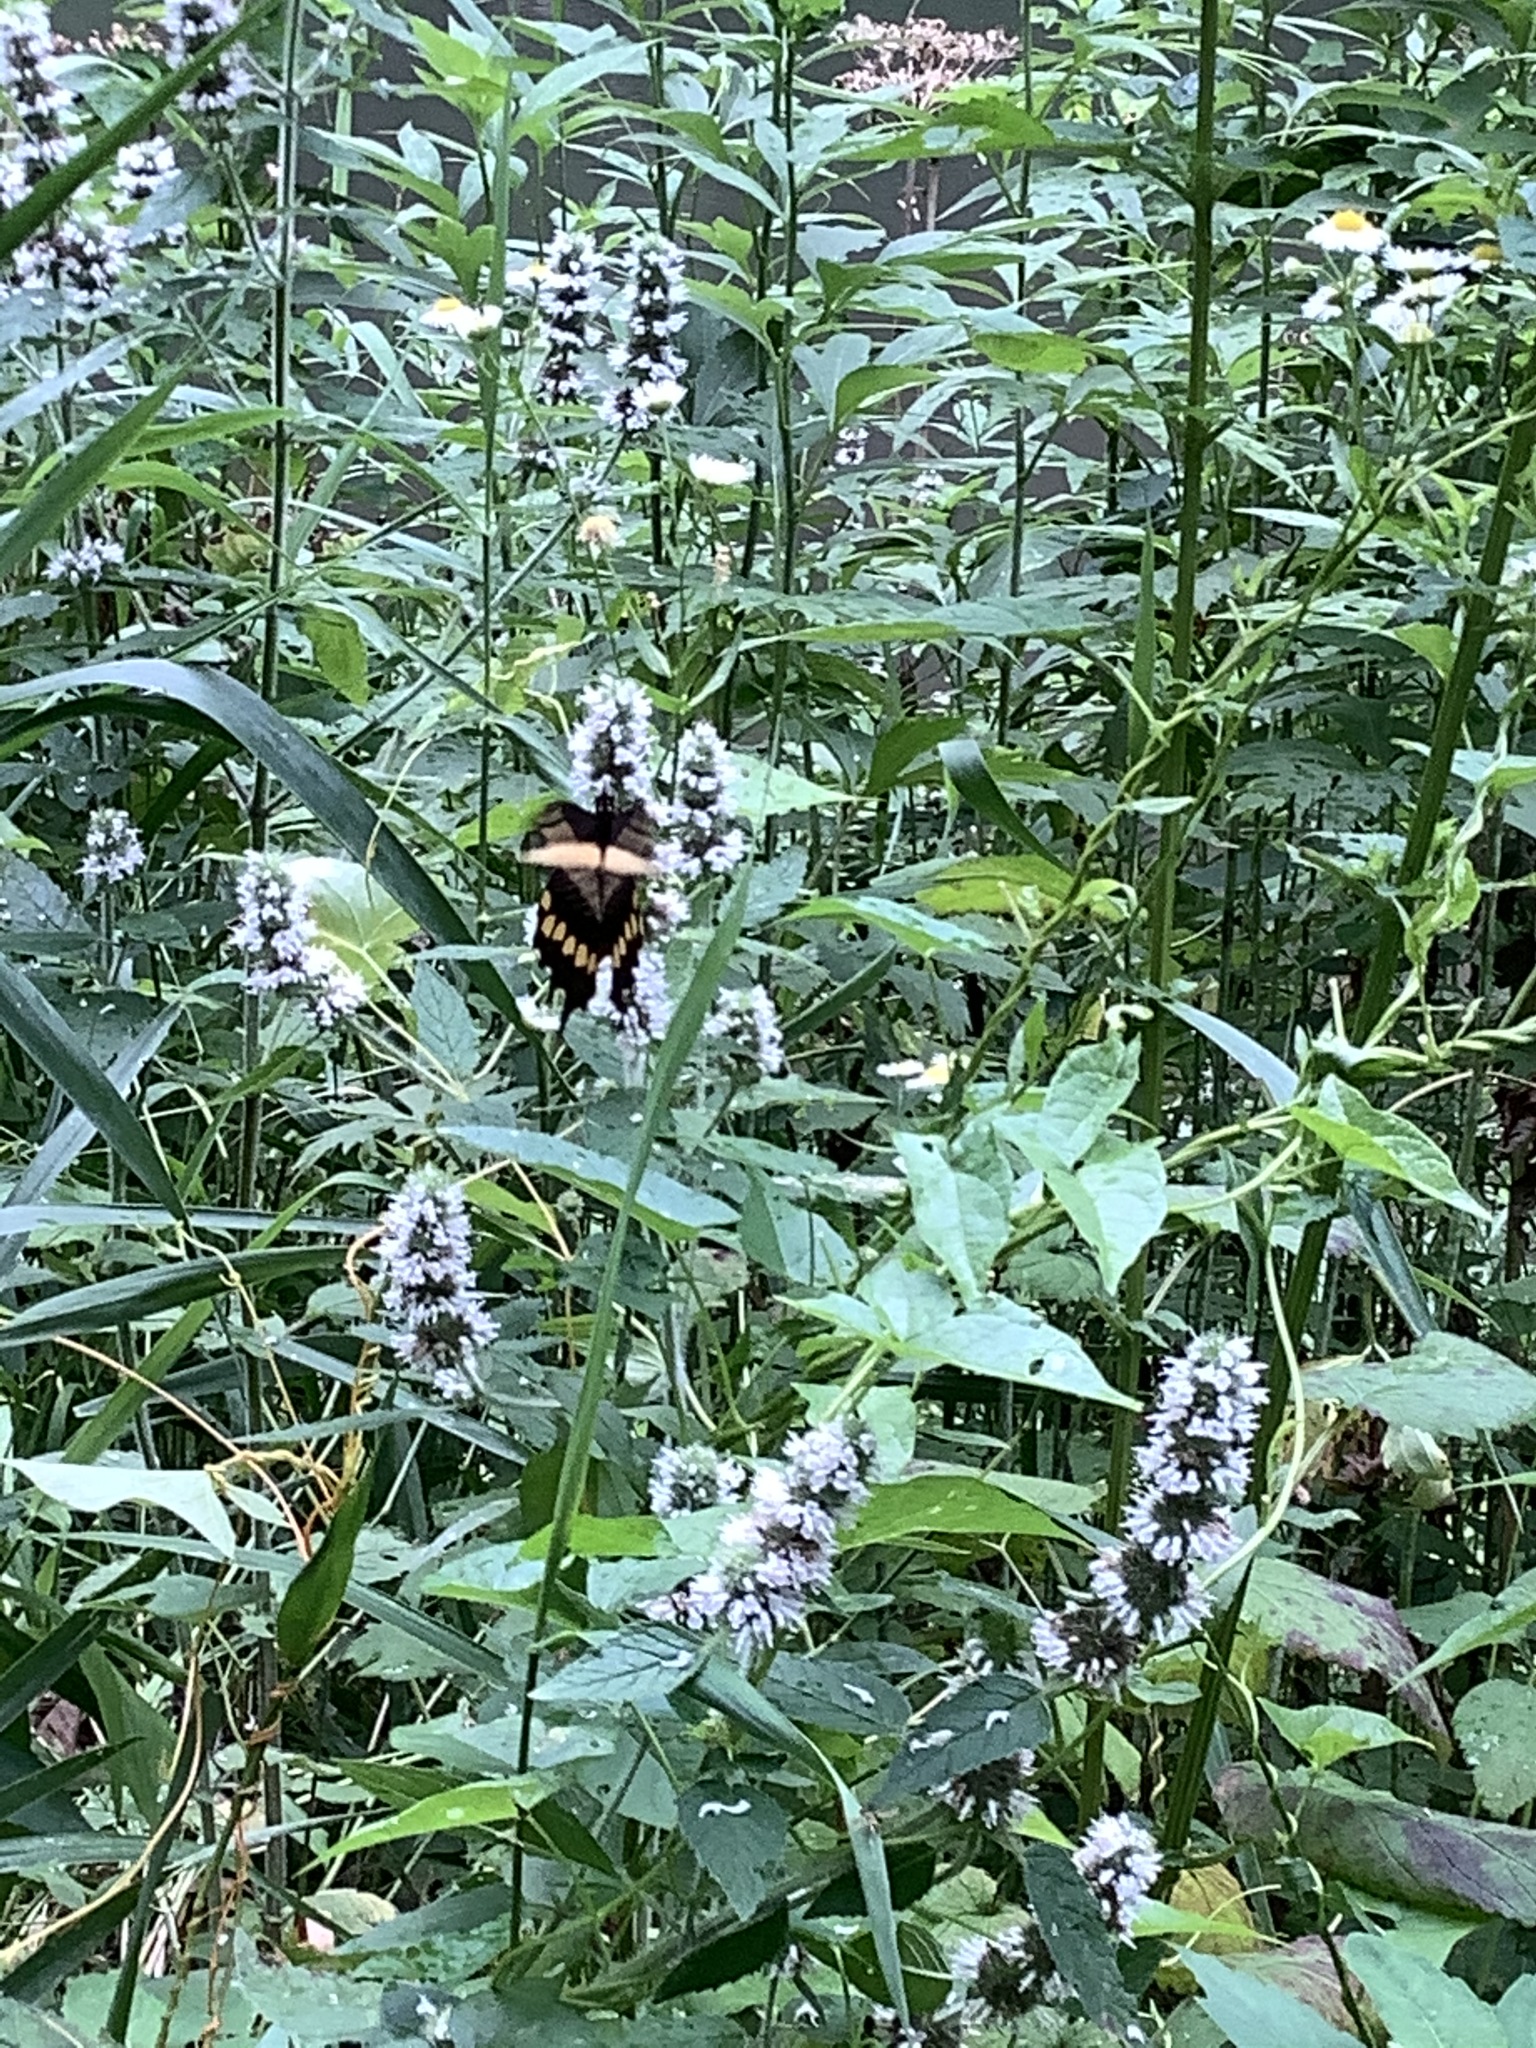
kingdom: Animalia
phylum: Arthropoda
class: Insecta
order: Lepidoptera
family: Papilionidae
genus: Papilio
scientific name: Papilio cresphontes
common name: Giant swallowtail
